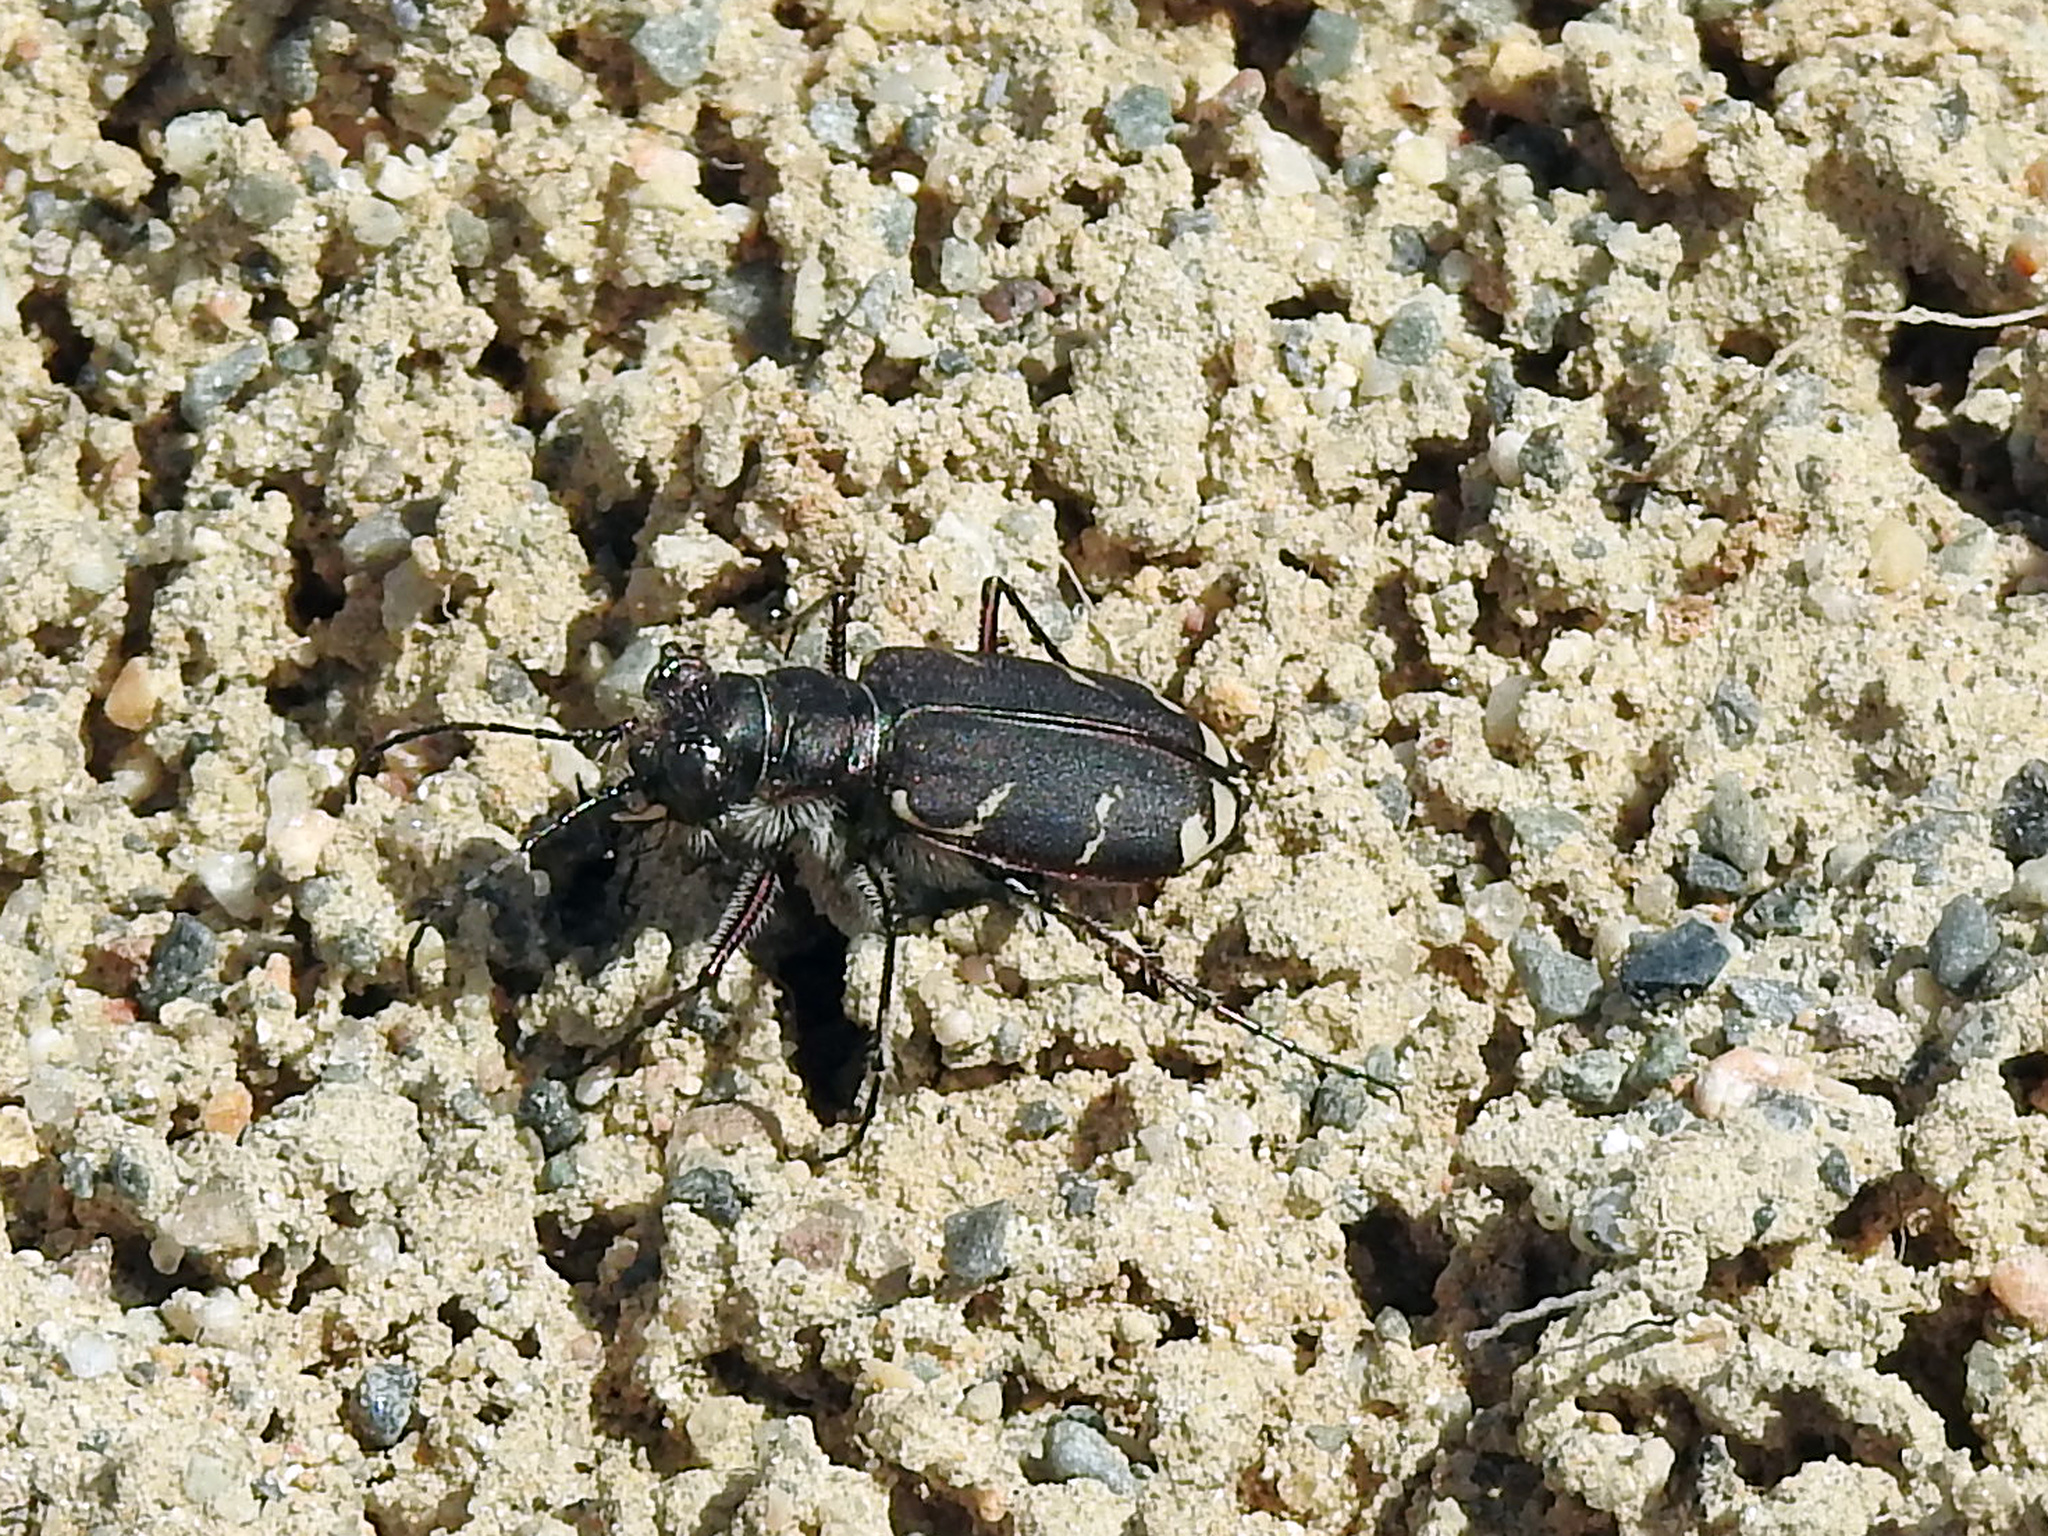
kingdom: Animalia
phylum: Arthropoda
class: Insecta
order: Coleoptera
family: Carabidae
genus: Cicindela
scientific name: Cicindela tranquebarica
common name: Oblique-lined tiger beetle
